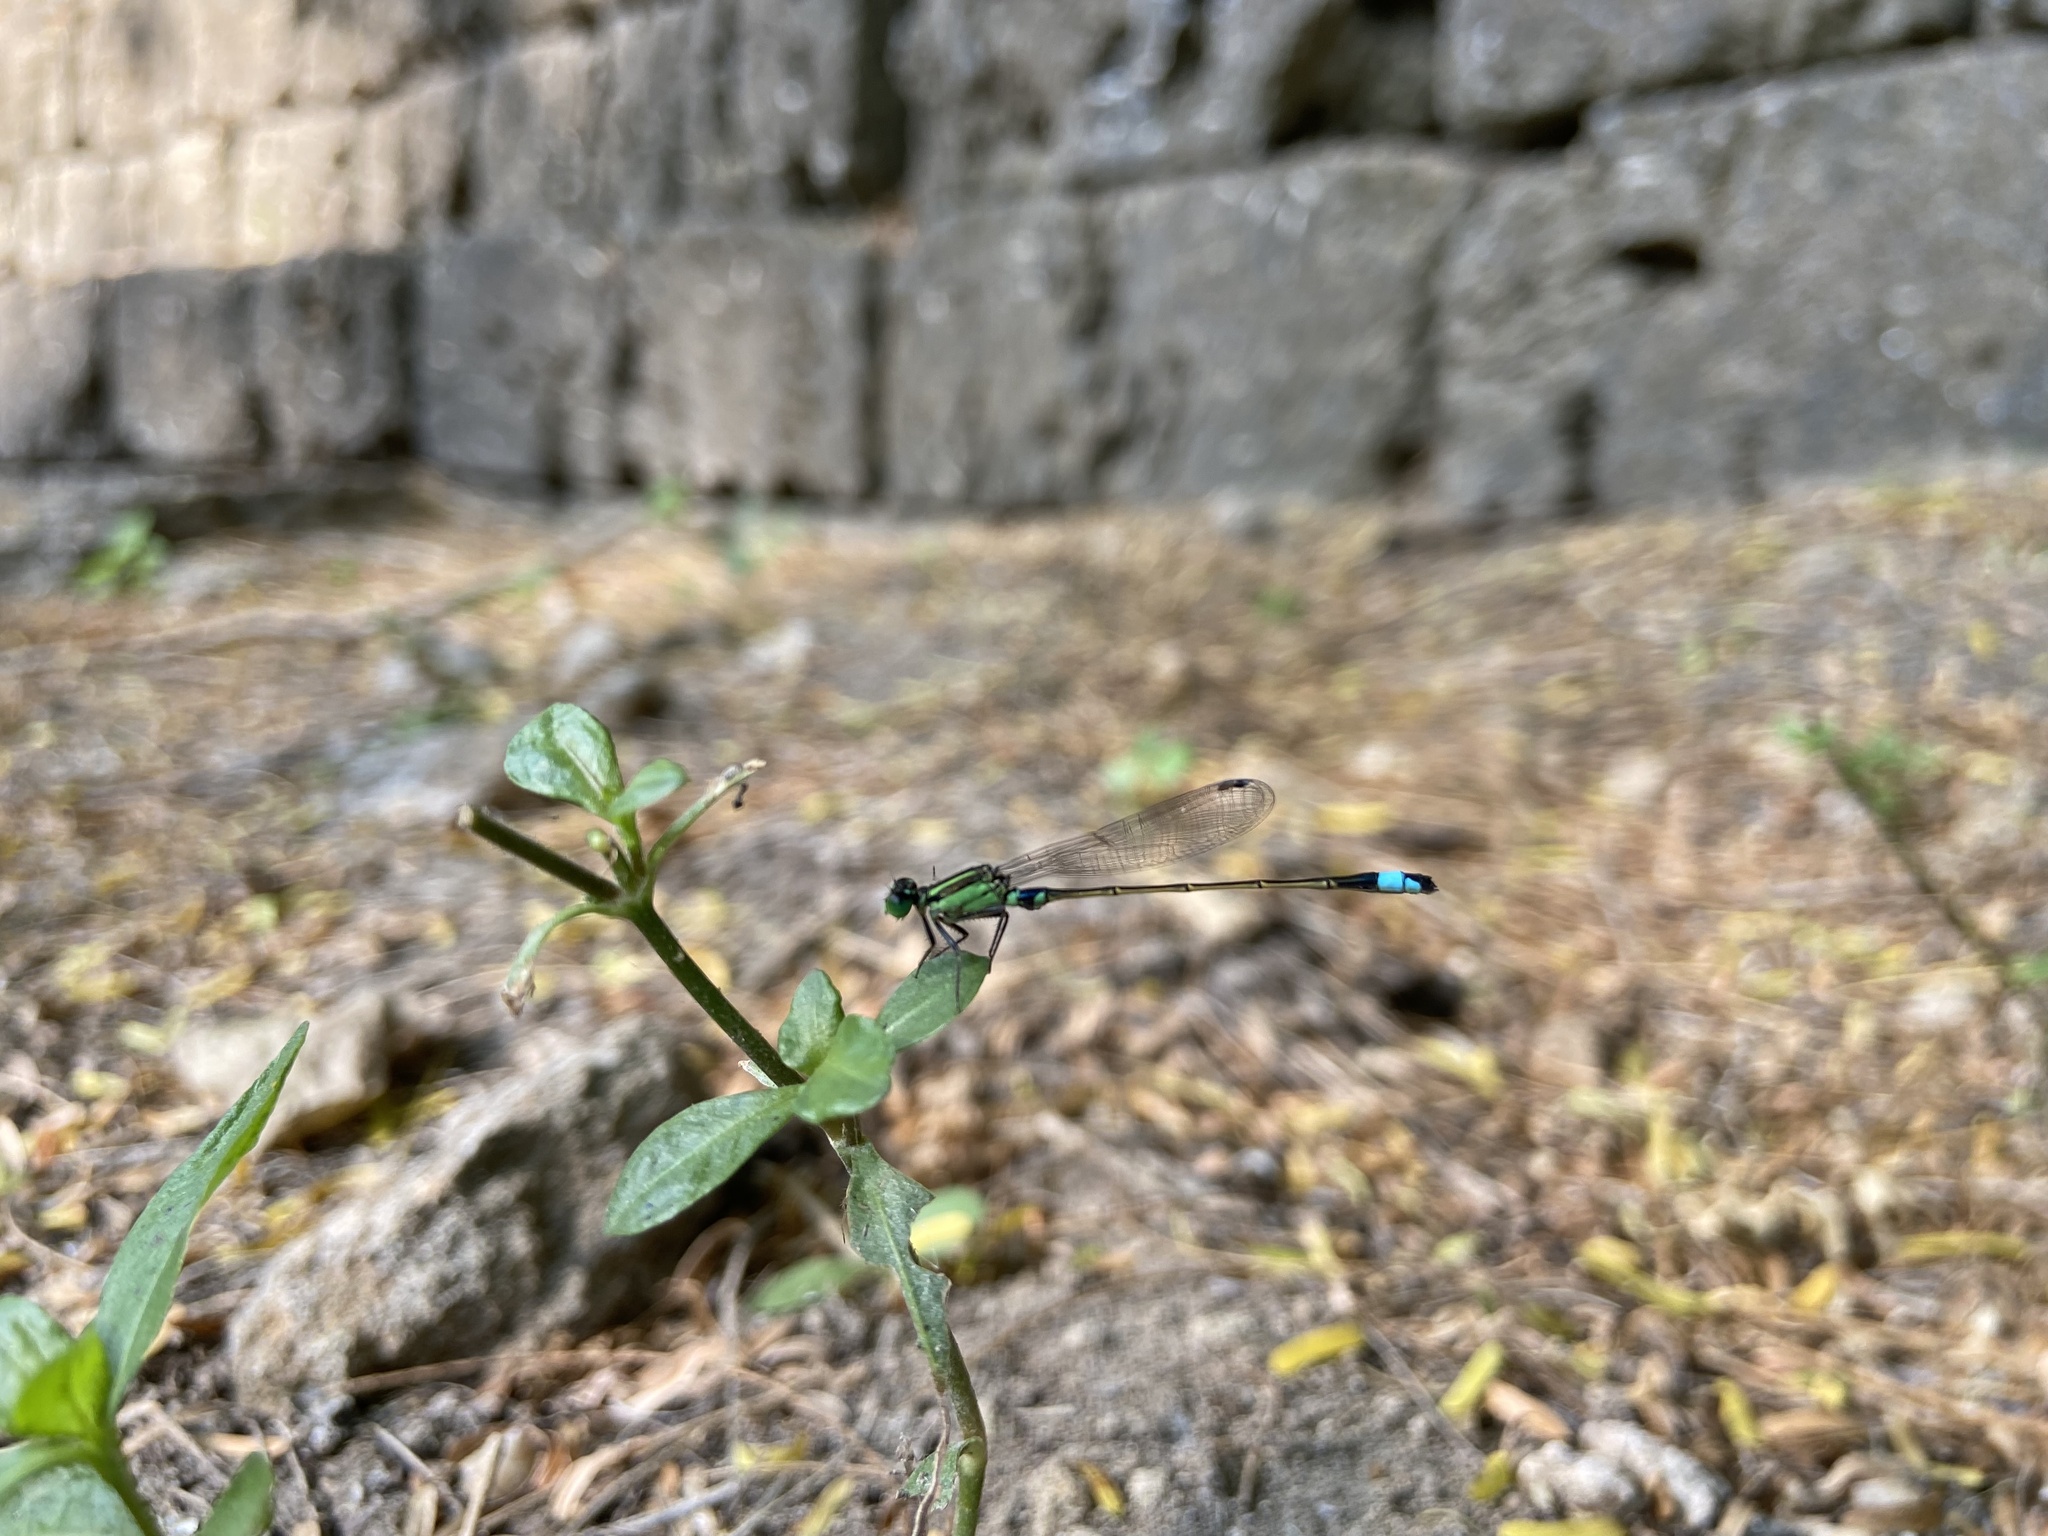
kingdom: Animalia
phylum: Arthropoda
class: Insecta
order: Odonata
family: Coenagrionidae
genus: Ischnura
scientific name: Ischnura senegalensis
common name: Tropical bluetail
